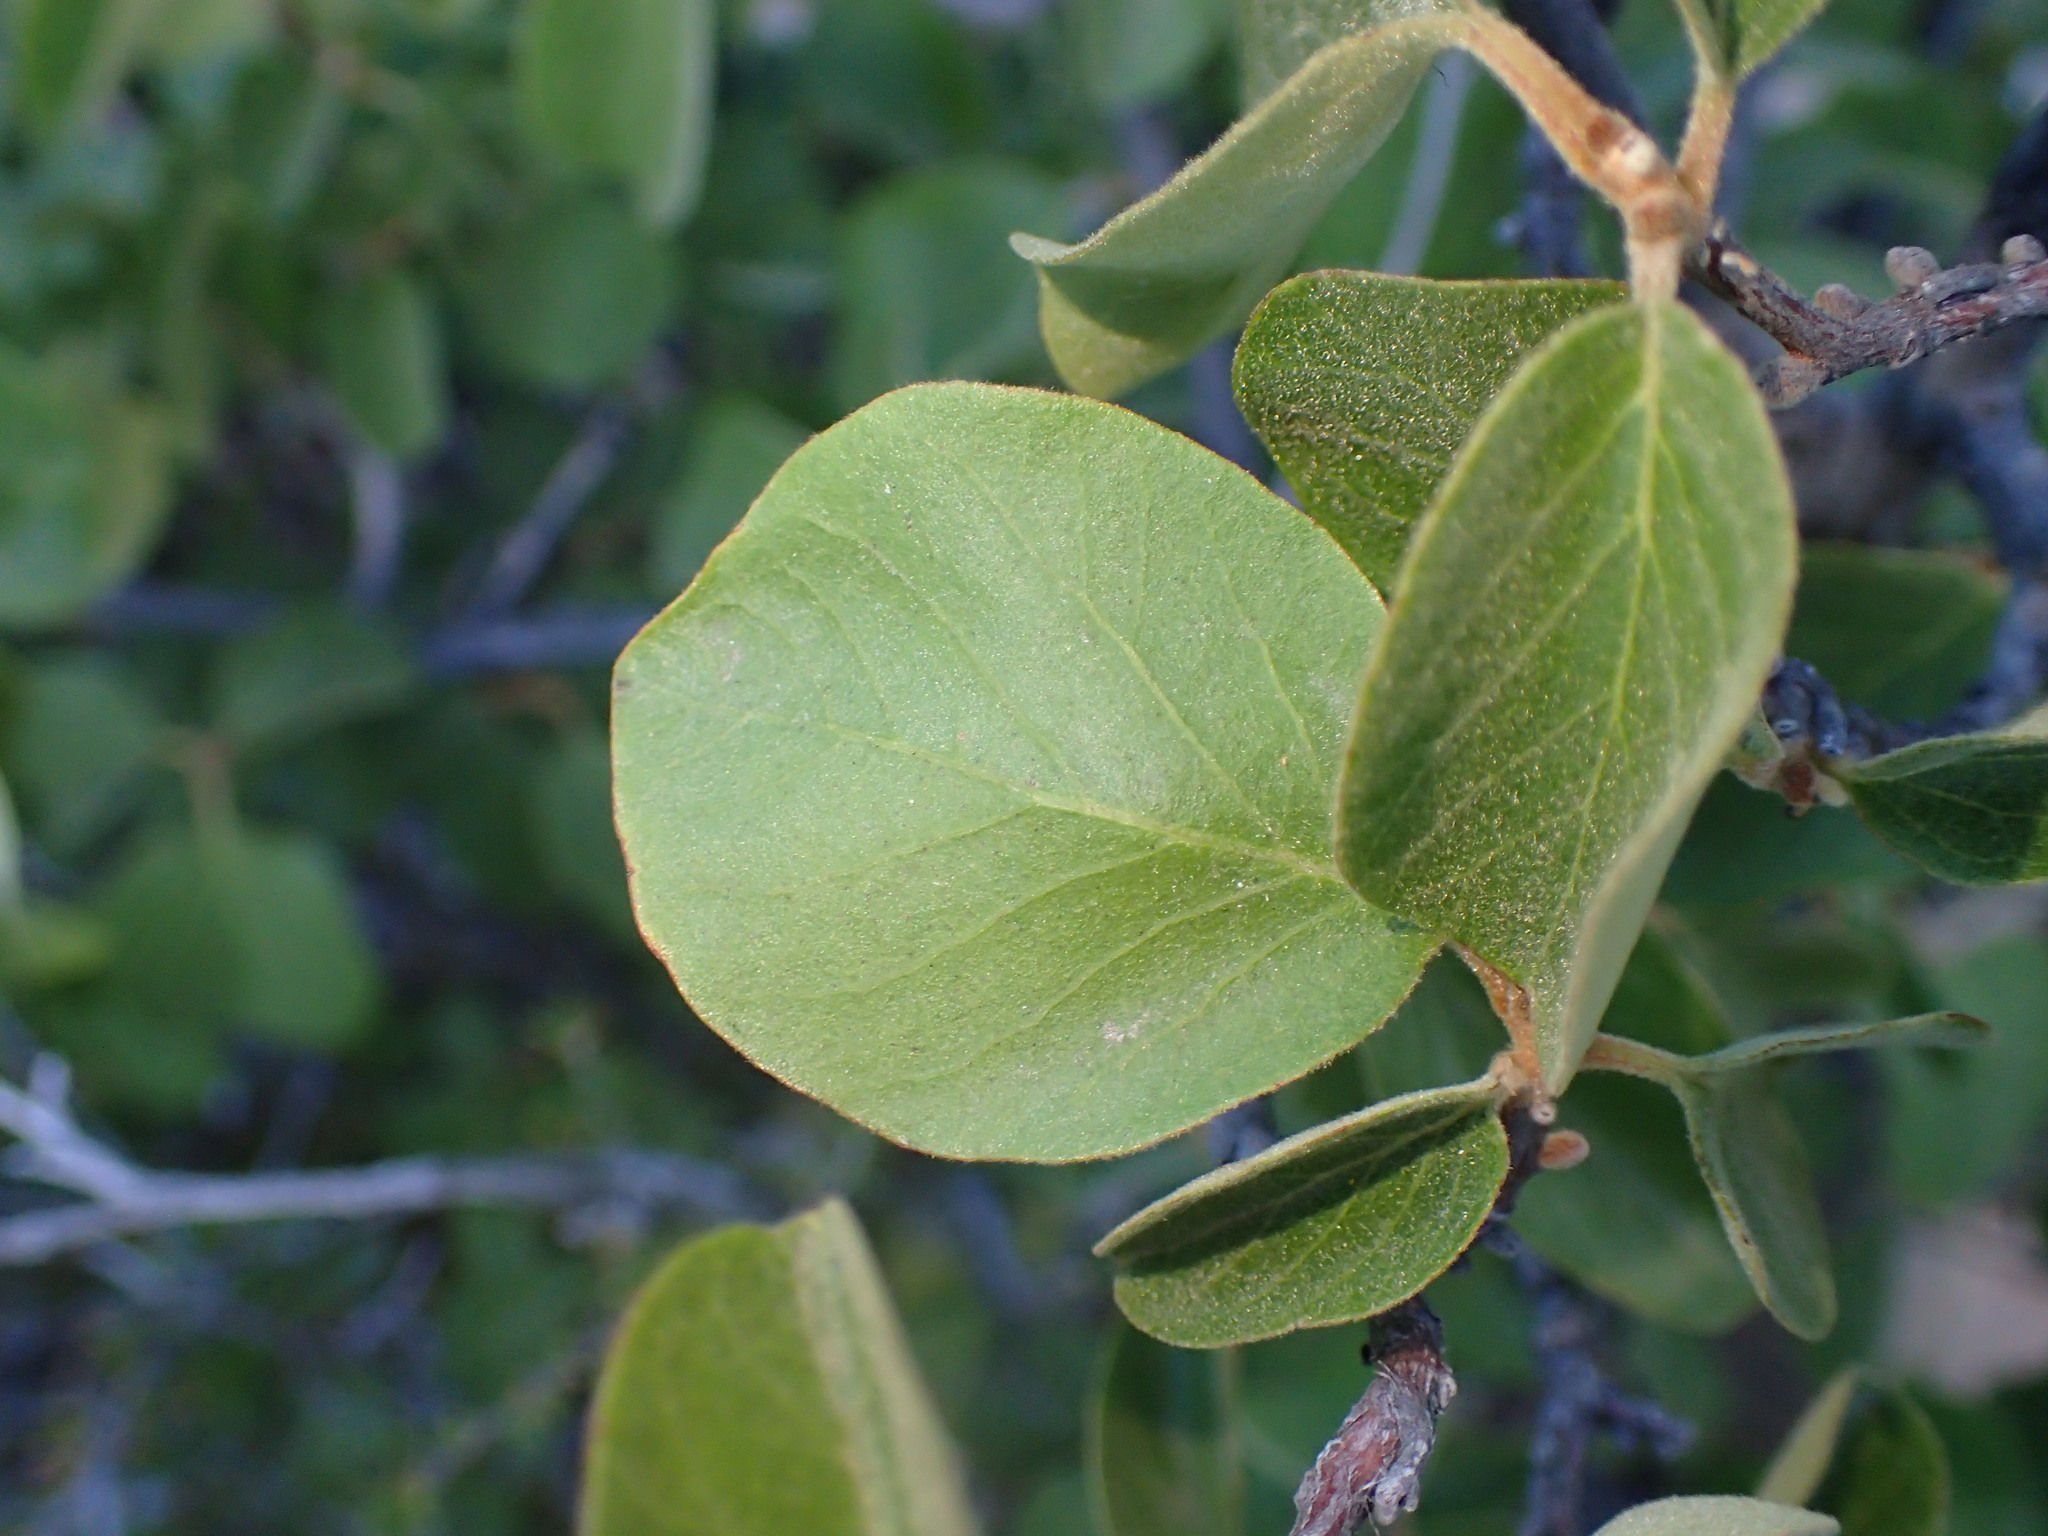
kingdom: Plantae
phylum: Tracheophyta
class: Magnoliopsida
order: Ericales
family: Styracaceae
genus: Styrax
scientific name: Styrax redivivus
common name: California styrax
